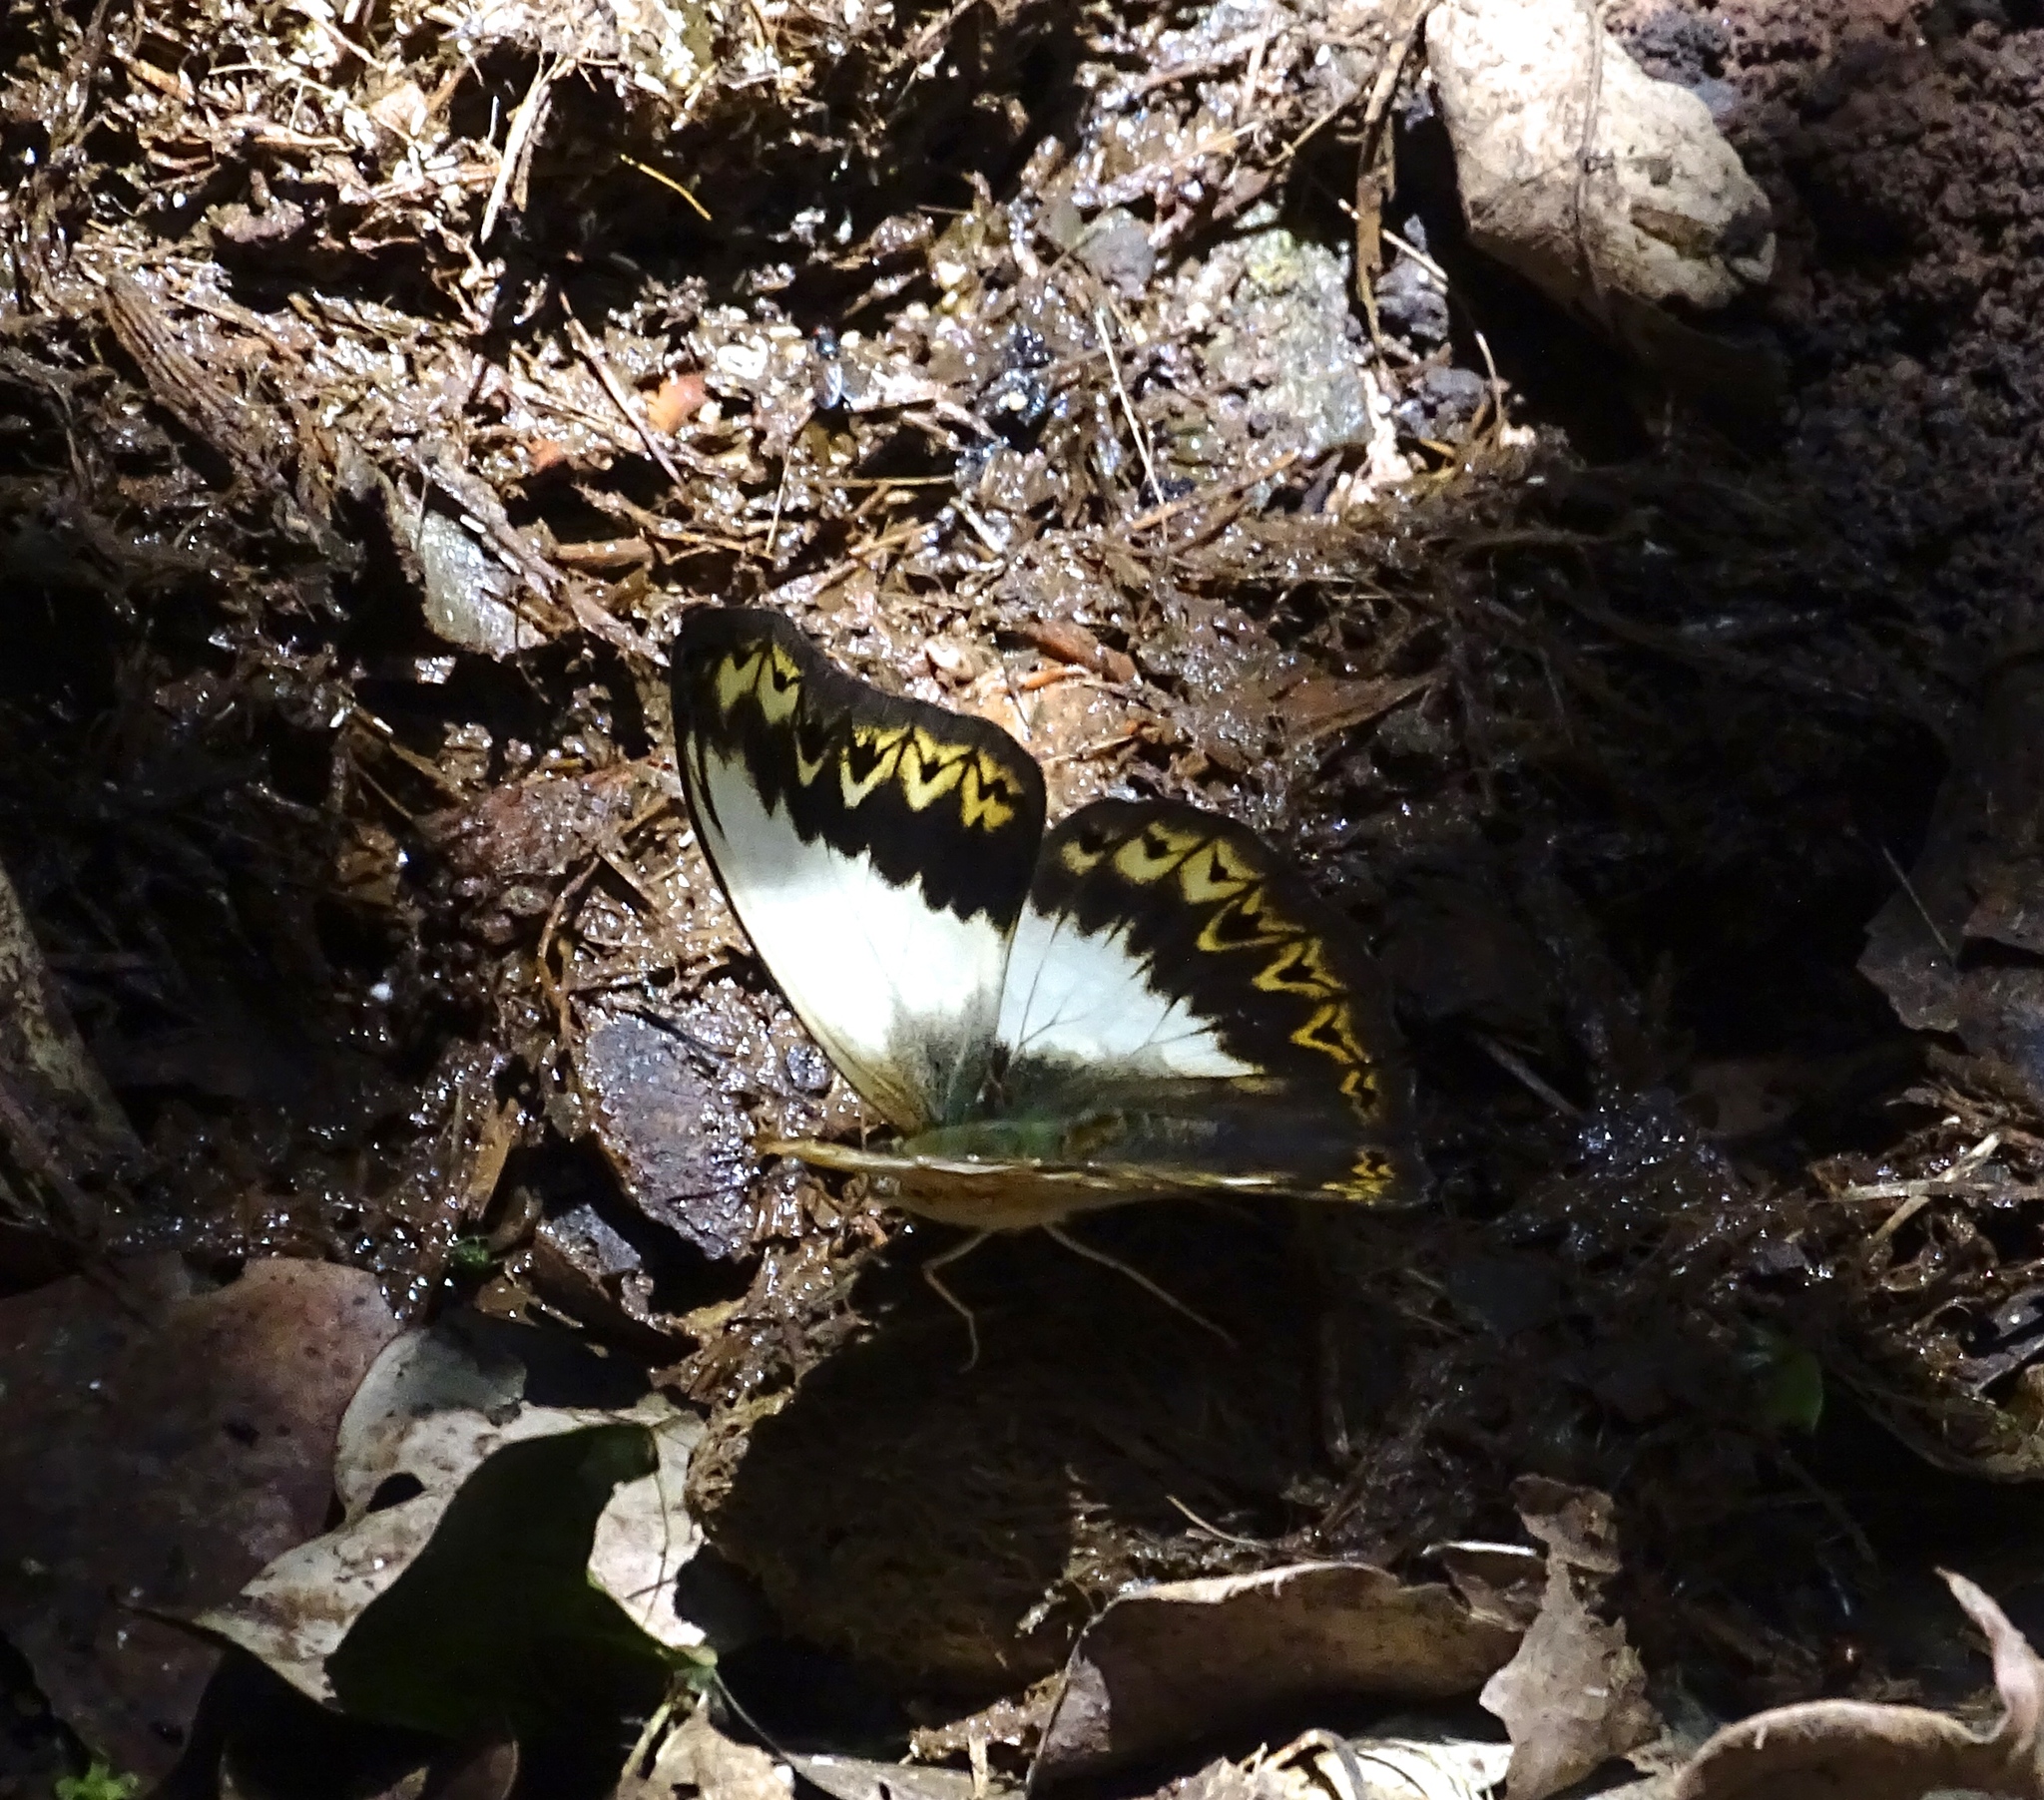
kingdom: Animalia
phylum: Arthropoda
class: Insecta
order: Lepidoptera
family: Nymphalidae
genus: Cymothoe
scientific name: Cymothoe herminia
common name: Herminia glider
